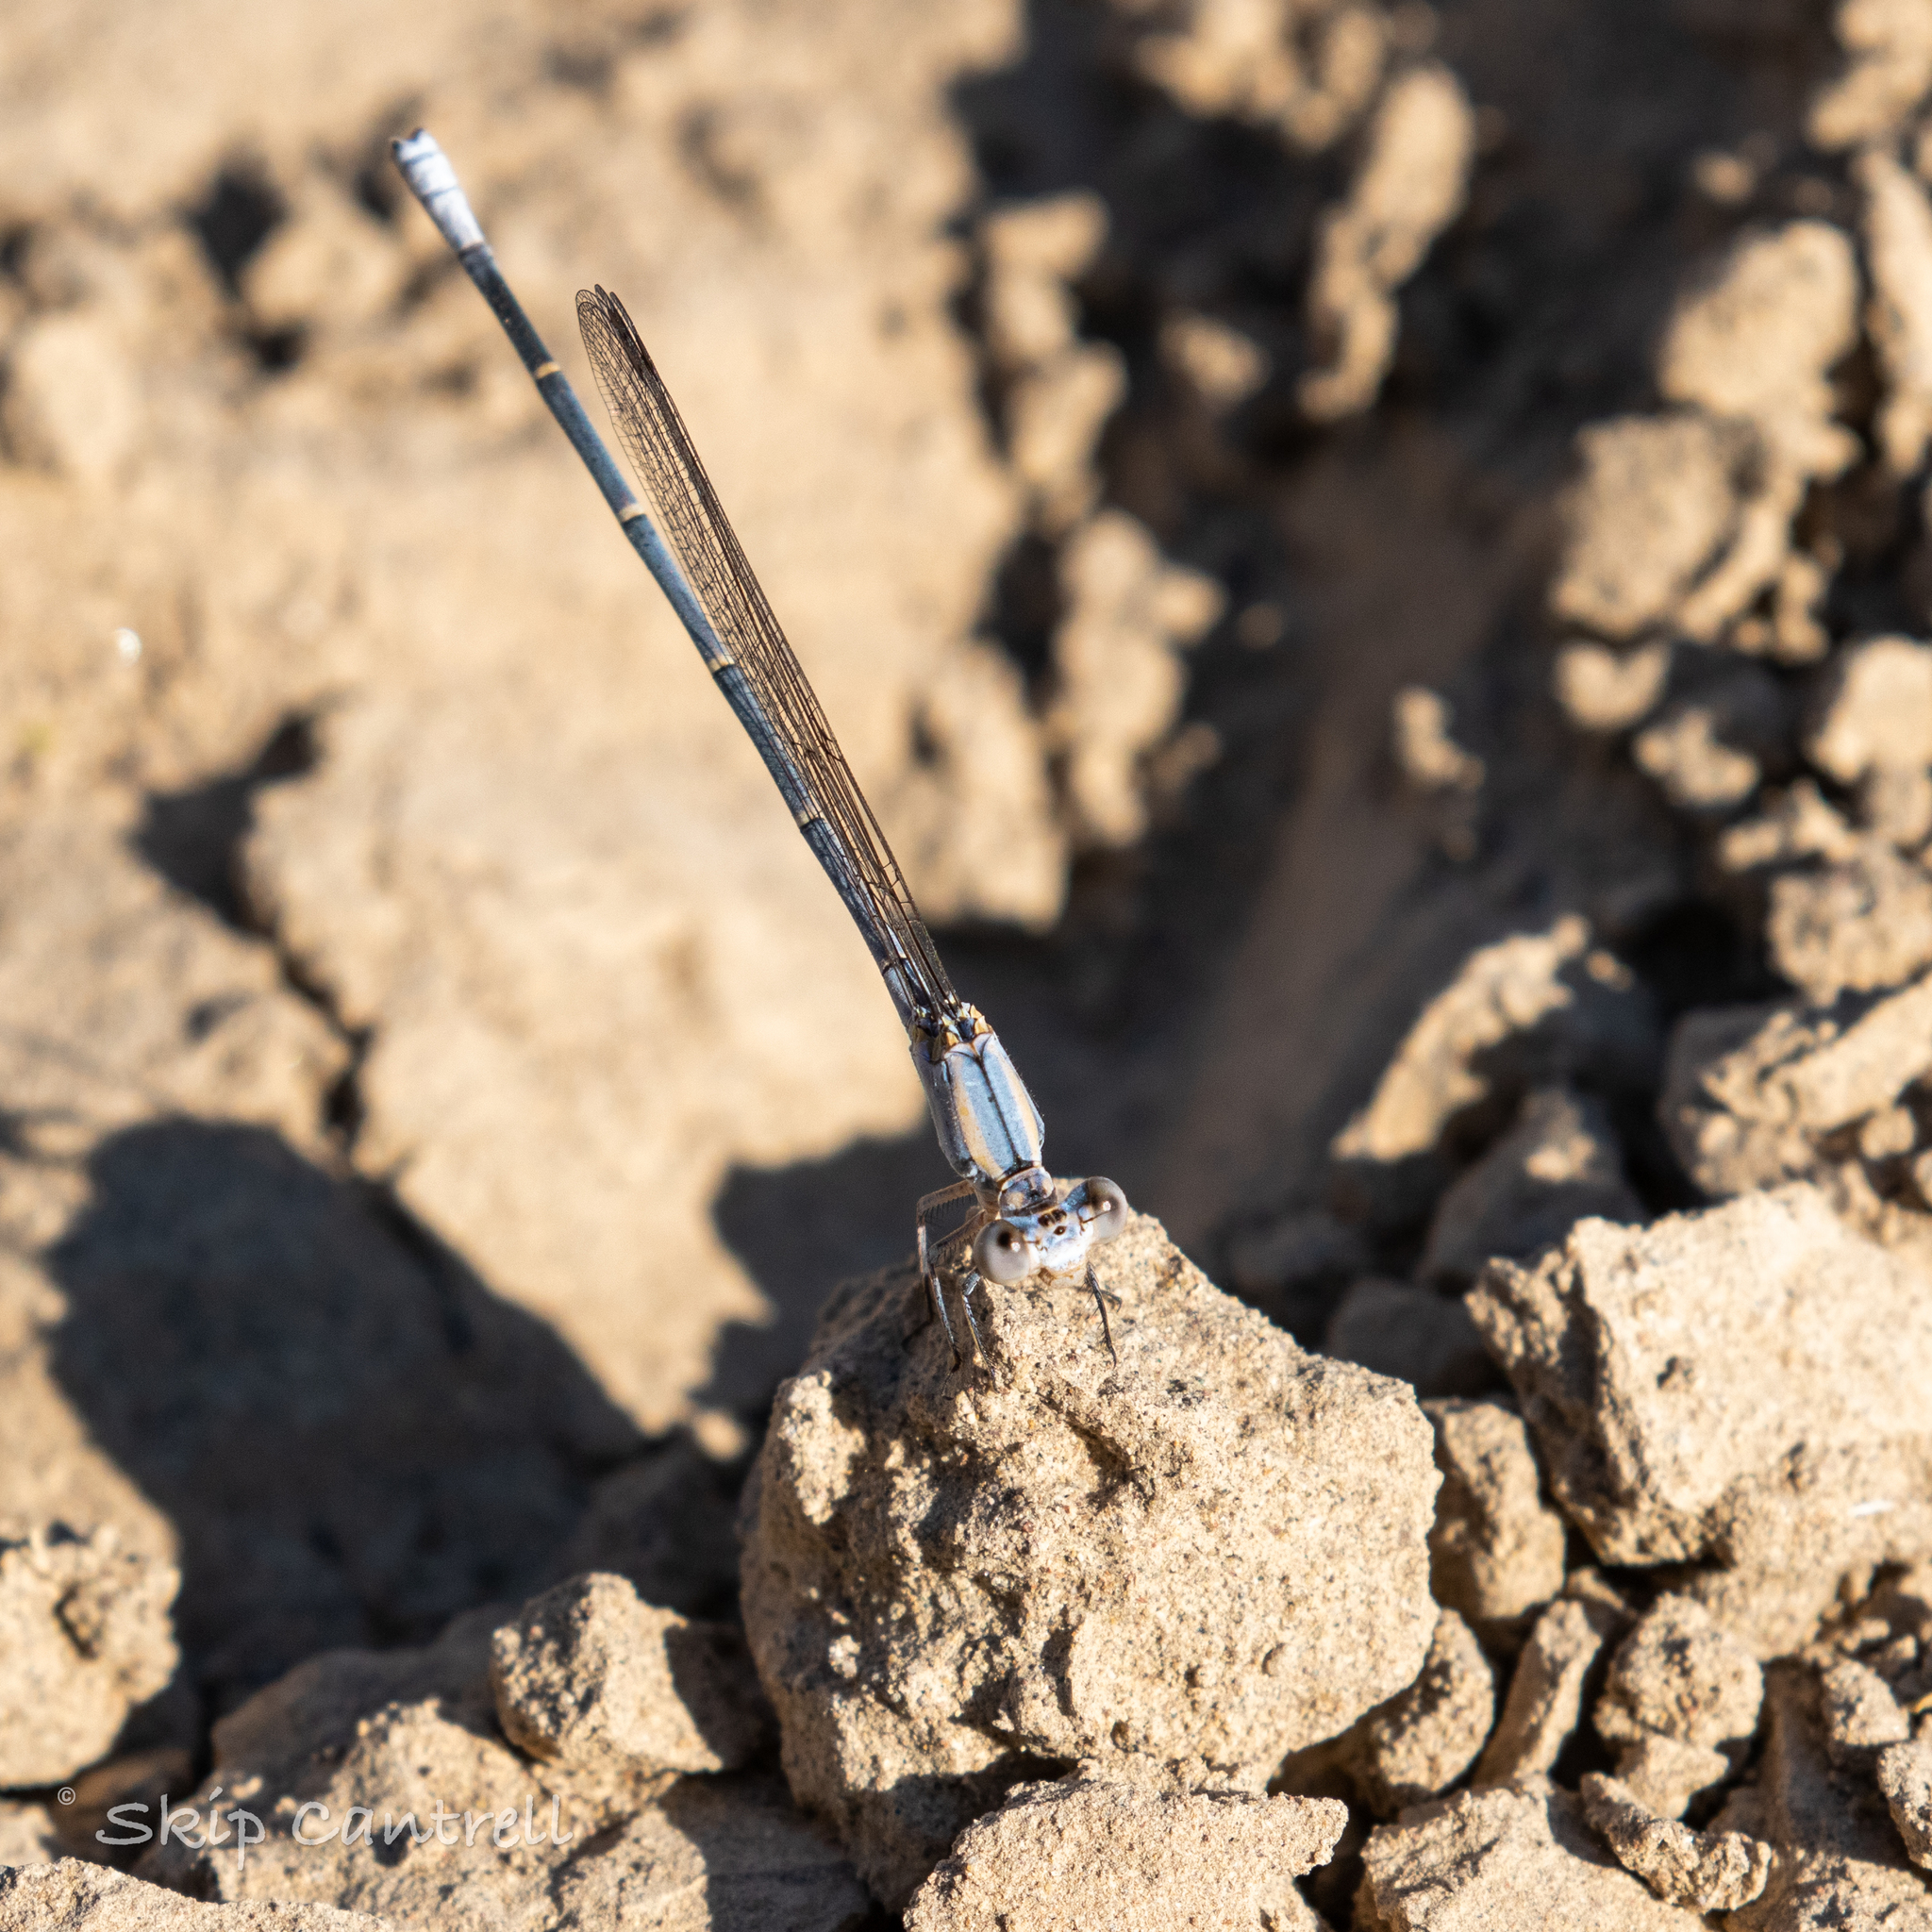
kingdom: Animalia
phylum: Arthropoda
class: Insecta
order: Odonata
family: Coenagrionidae
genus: Argia
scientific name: Argia moesta
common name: Powdered dancer
